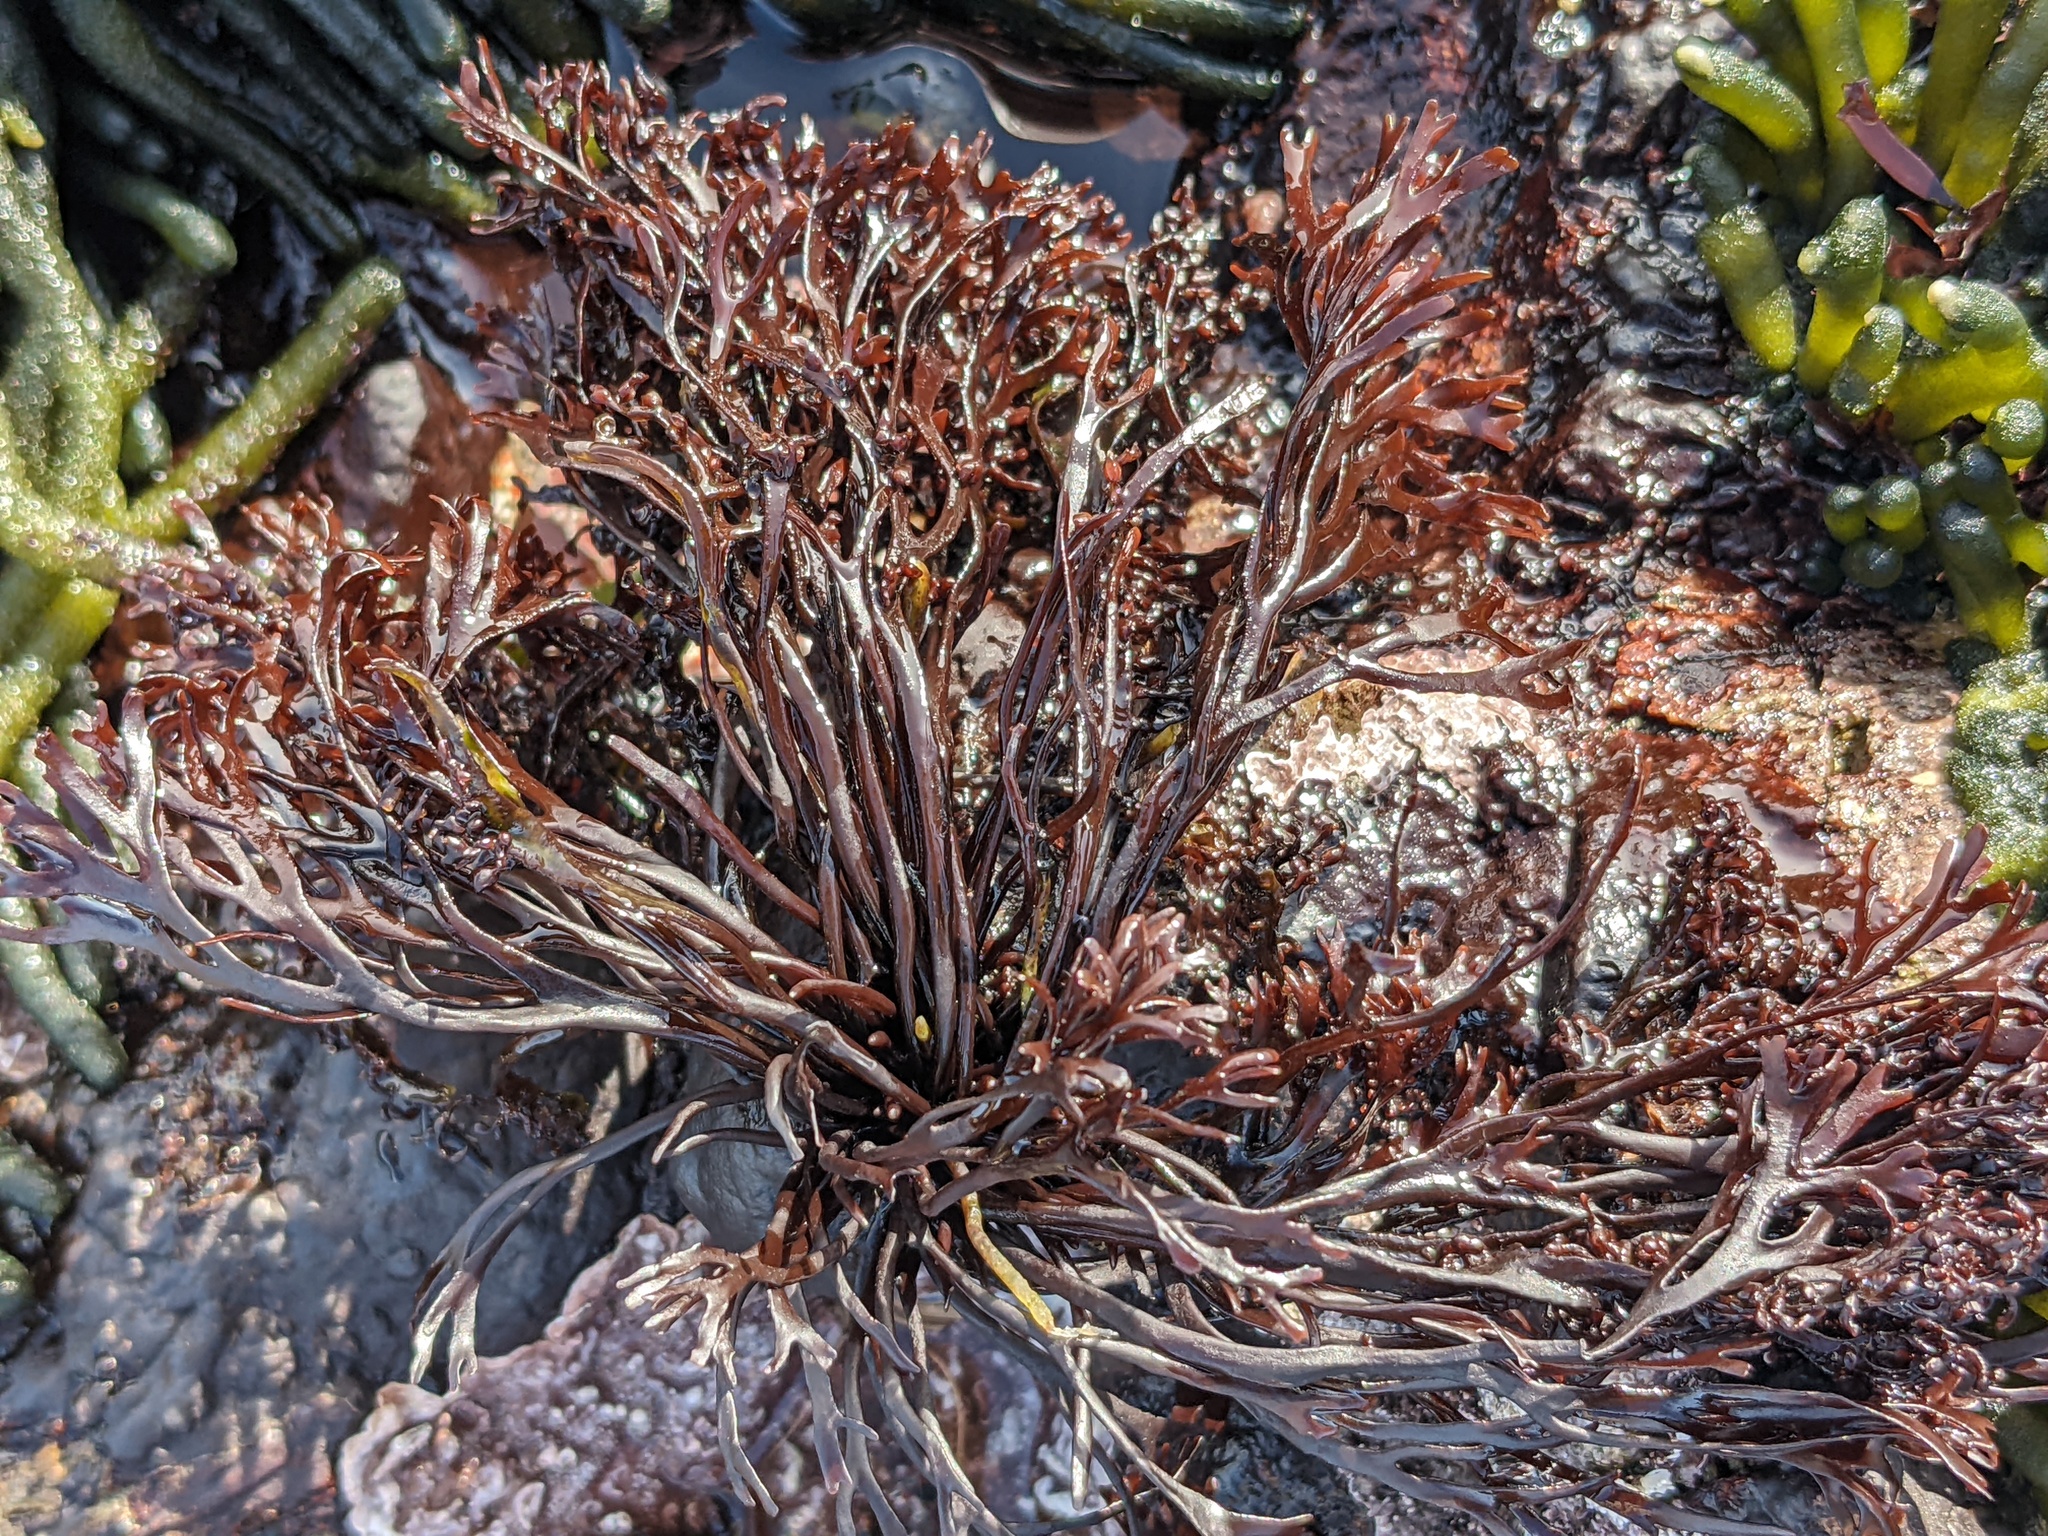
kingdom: Plantae
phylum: Rhodophyta
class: Florideophyceae
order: Gigartinales
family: Phyllophoraceae
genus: Mastocarpus
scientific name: Mastocarpus jardinii
